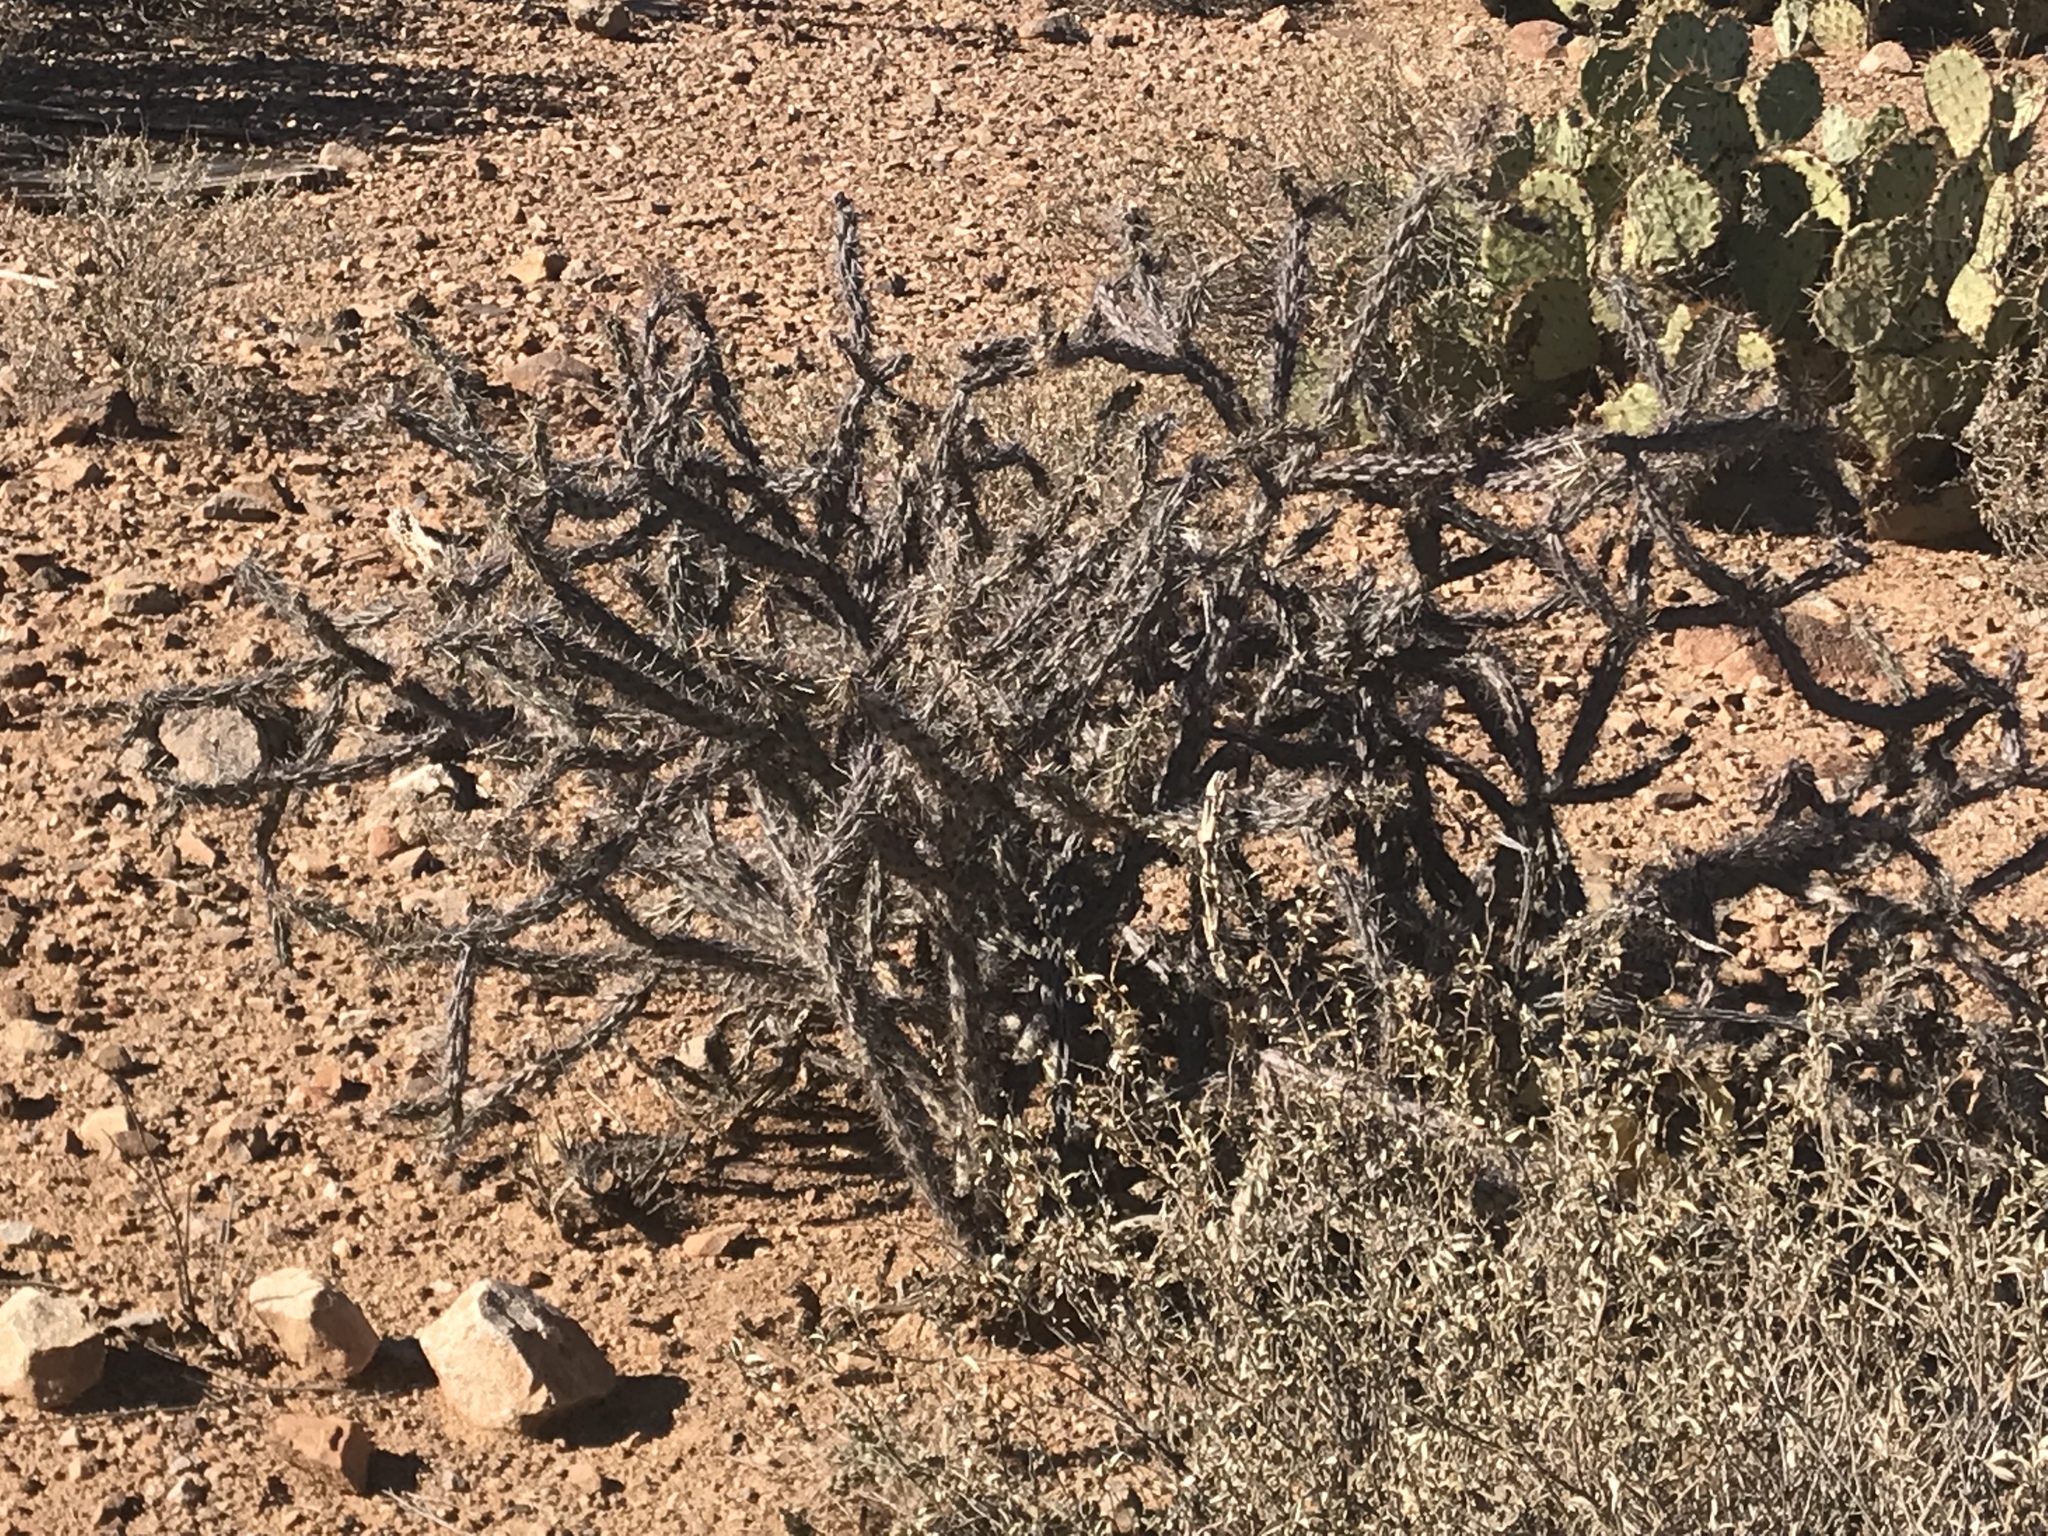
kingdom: Plantae
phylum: Tracheophyta
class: Magnoliopsida
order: Caryophyllales
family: Cactaceae
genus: Cylindropuntia
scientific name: Cylindropuntia thurberi
